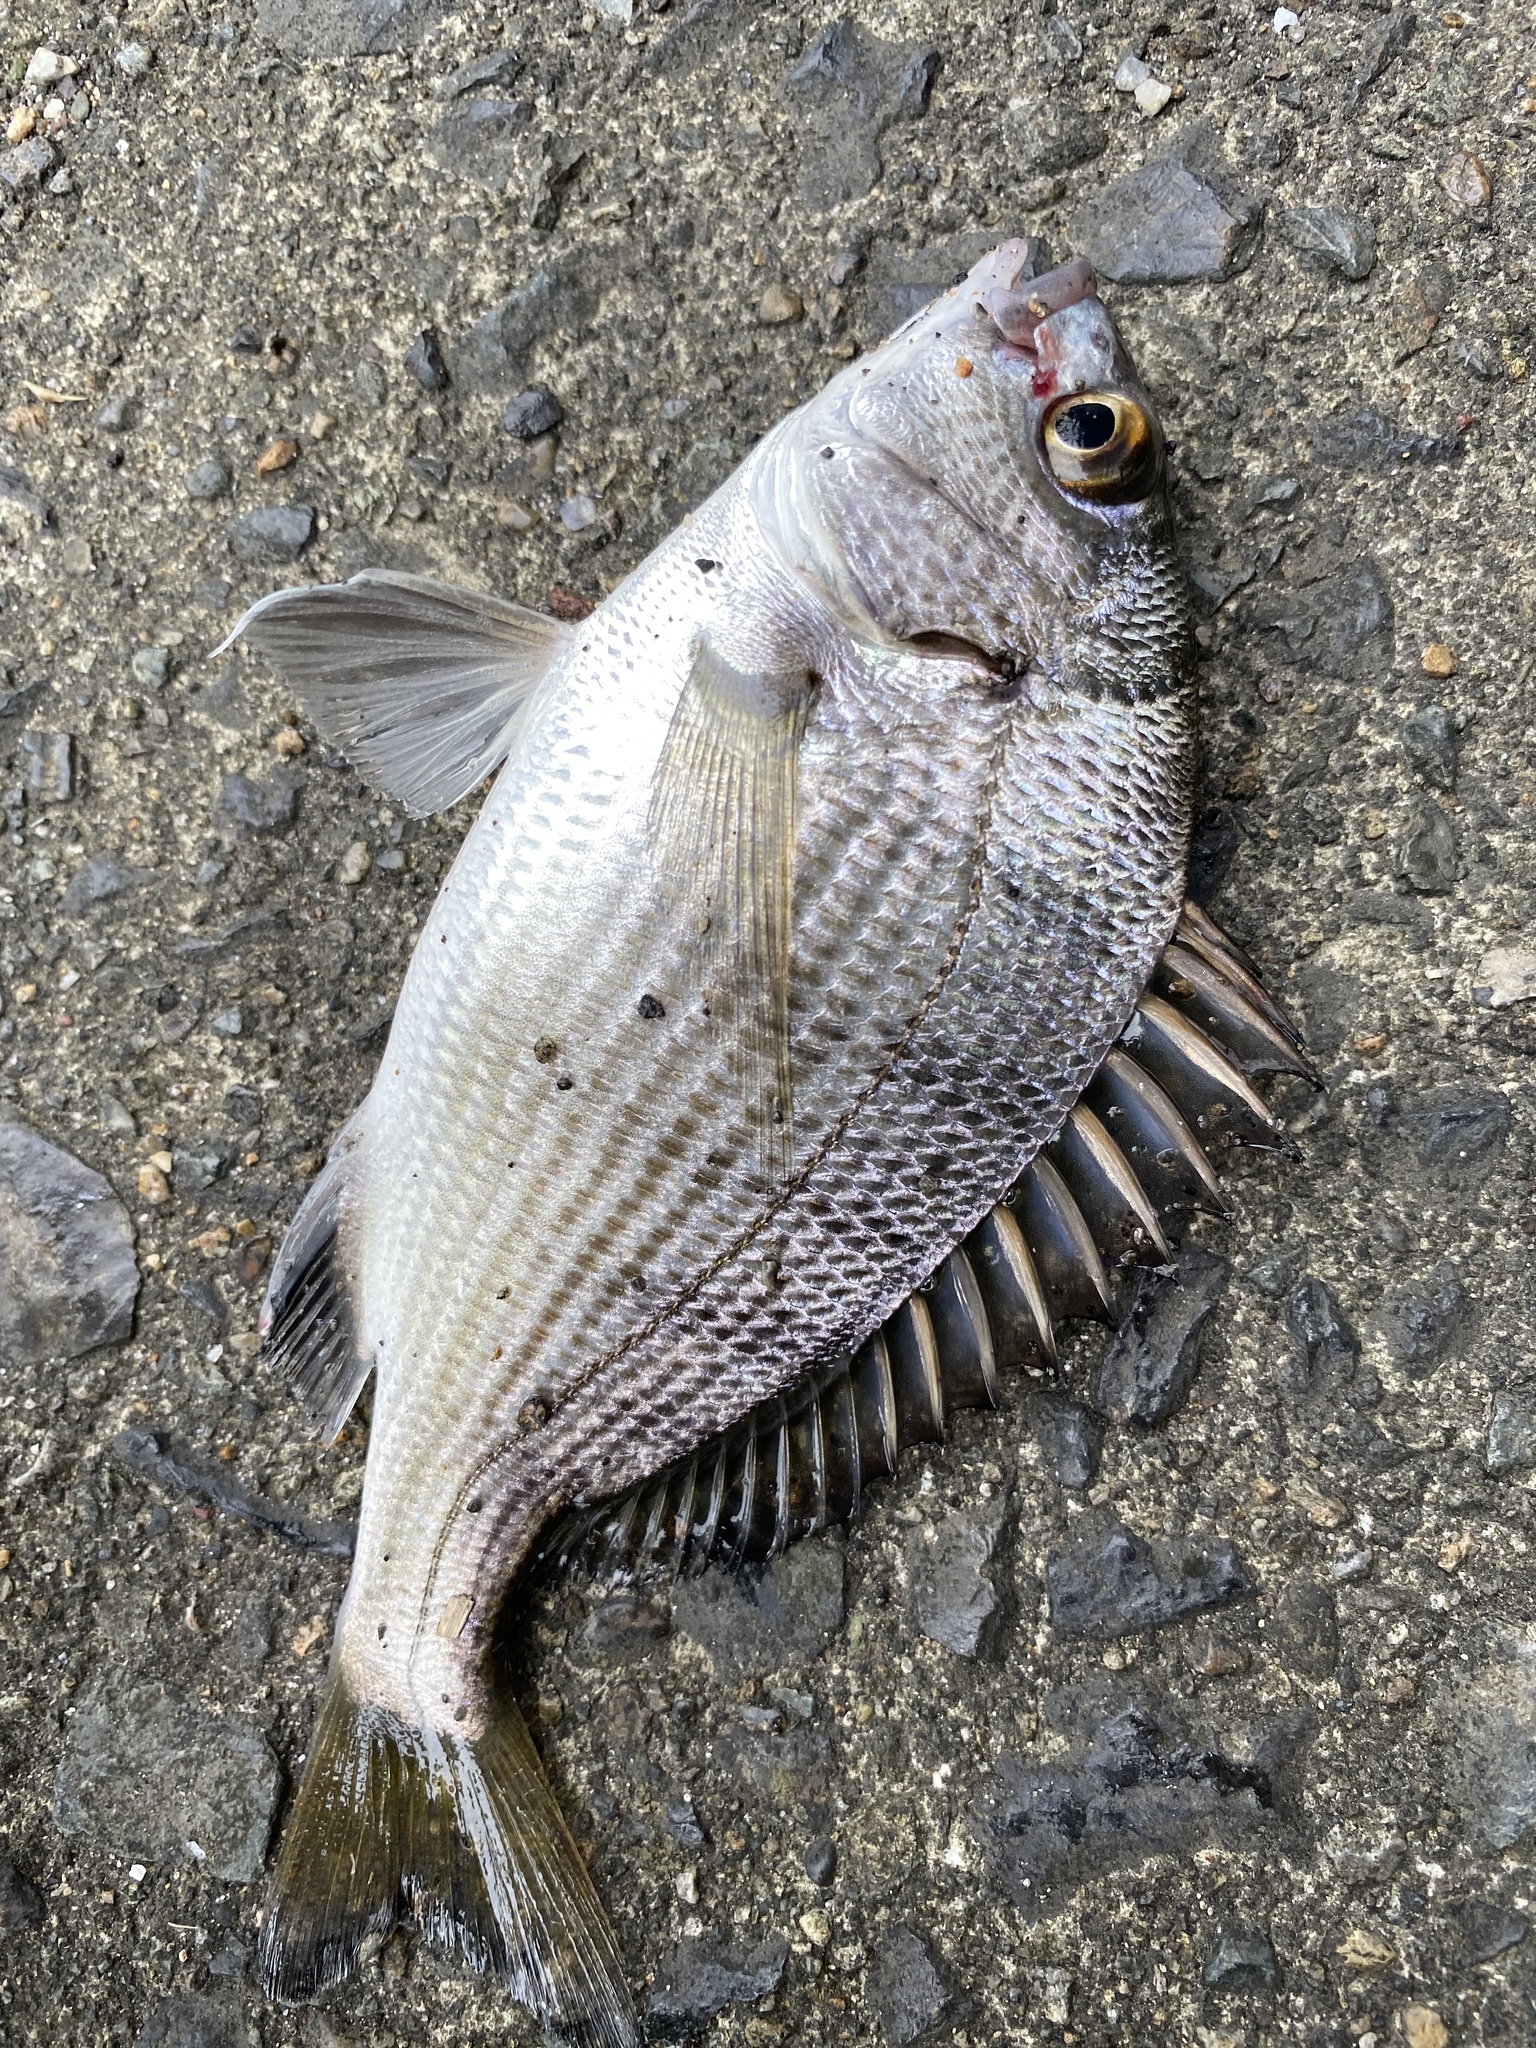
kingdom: Animalia
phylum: Chordata
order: Perciformes
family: Sparidae
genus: Acanthopagrus
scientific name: Acanthopagrus schlegelii
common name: Blackhead seabream
